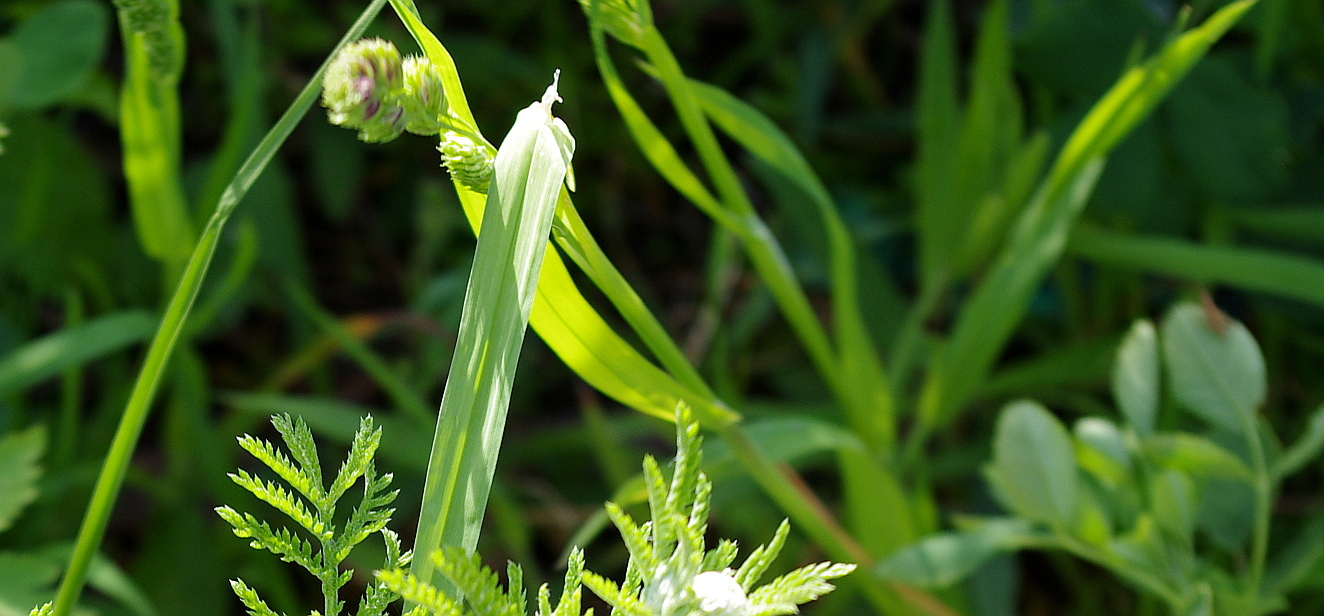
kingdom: Plantae
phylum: Tracheophyta
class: Liliopsida
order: Poales
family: Poaceae
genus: Dactylis
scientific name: Dactylis glomerata
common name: Orchardgrass
